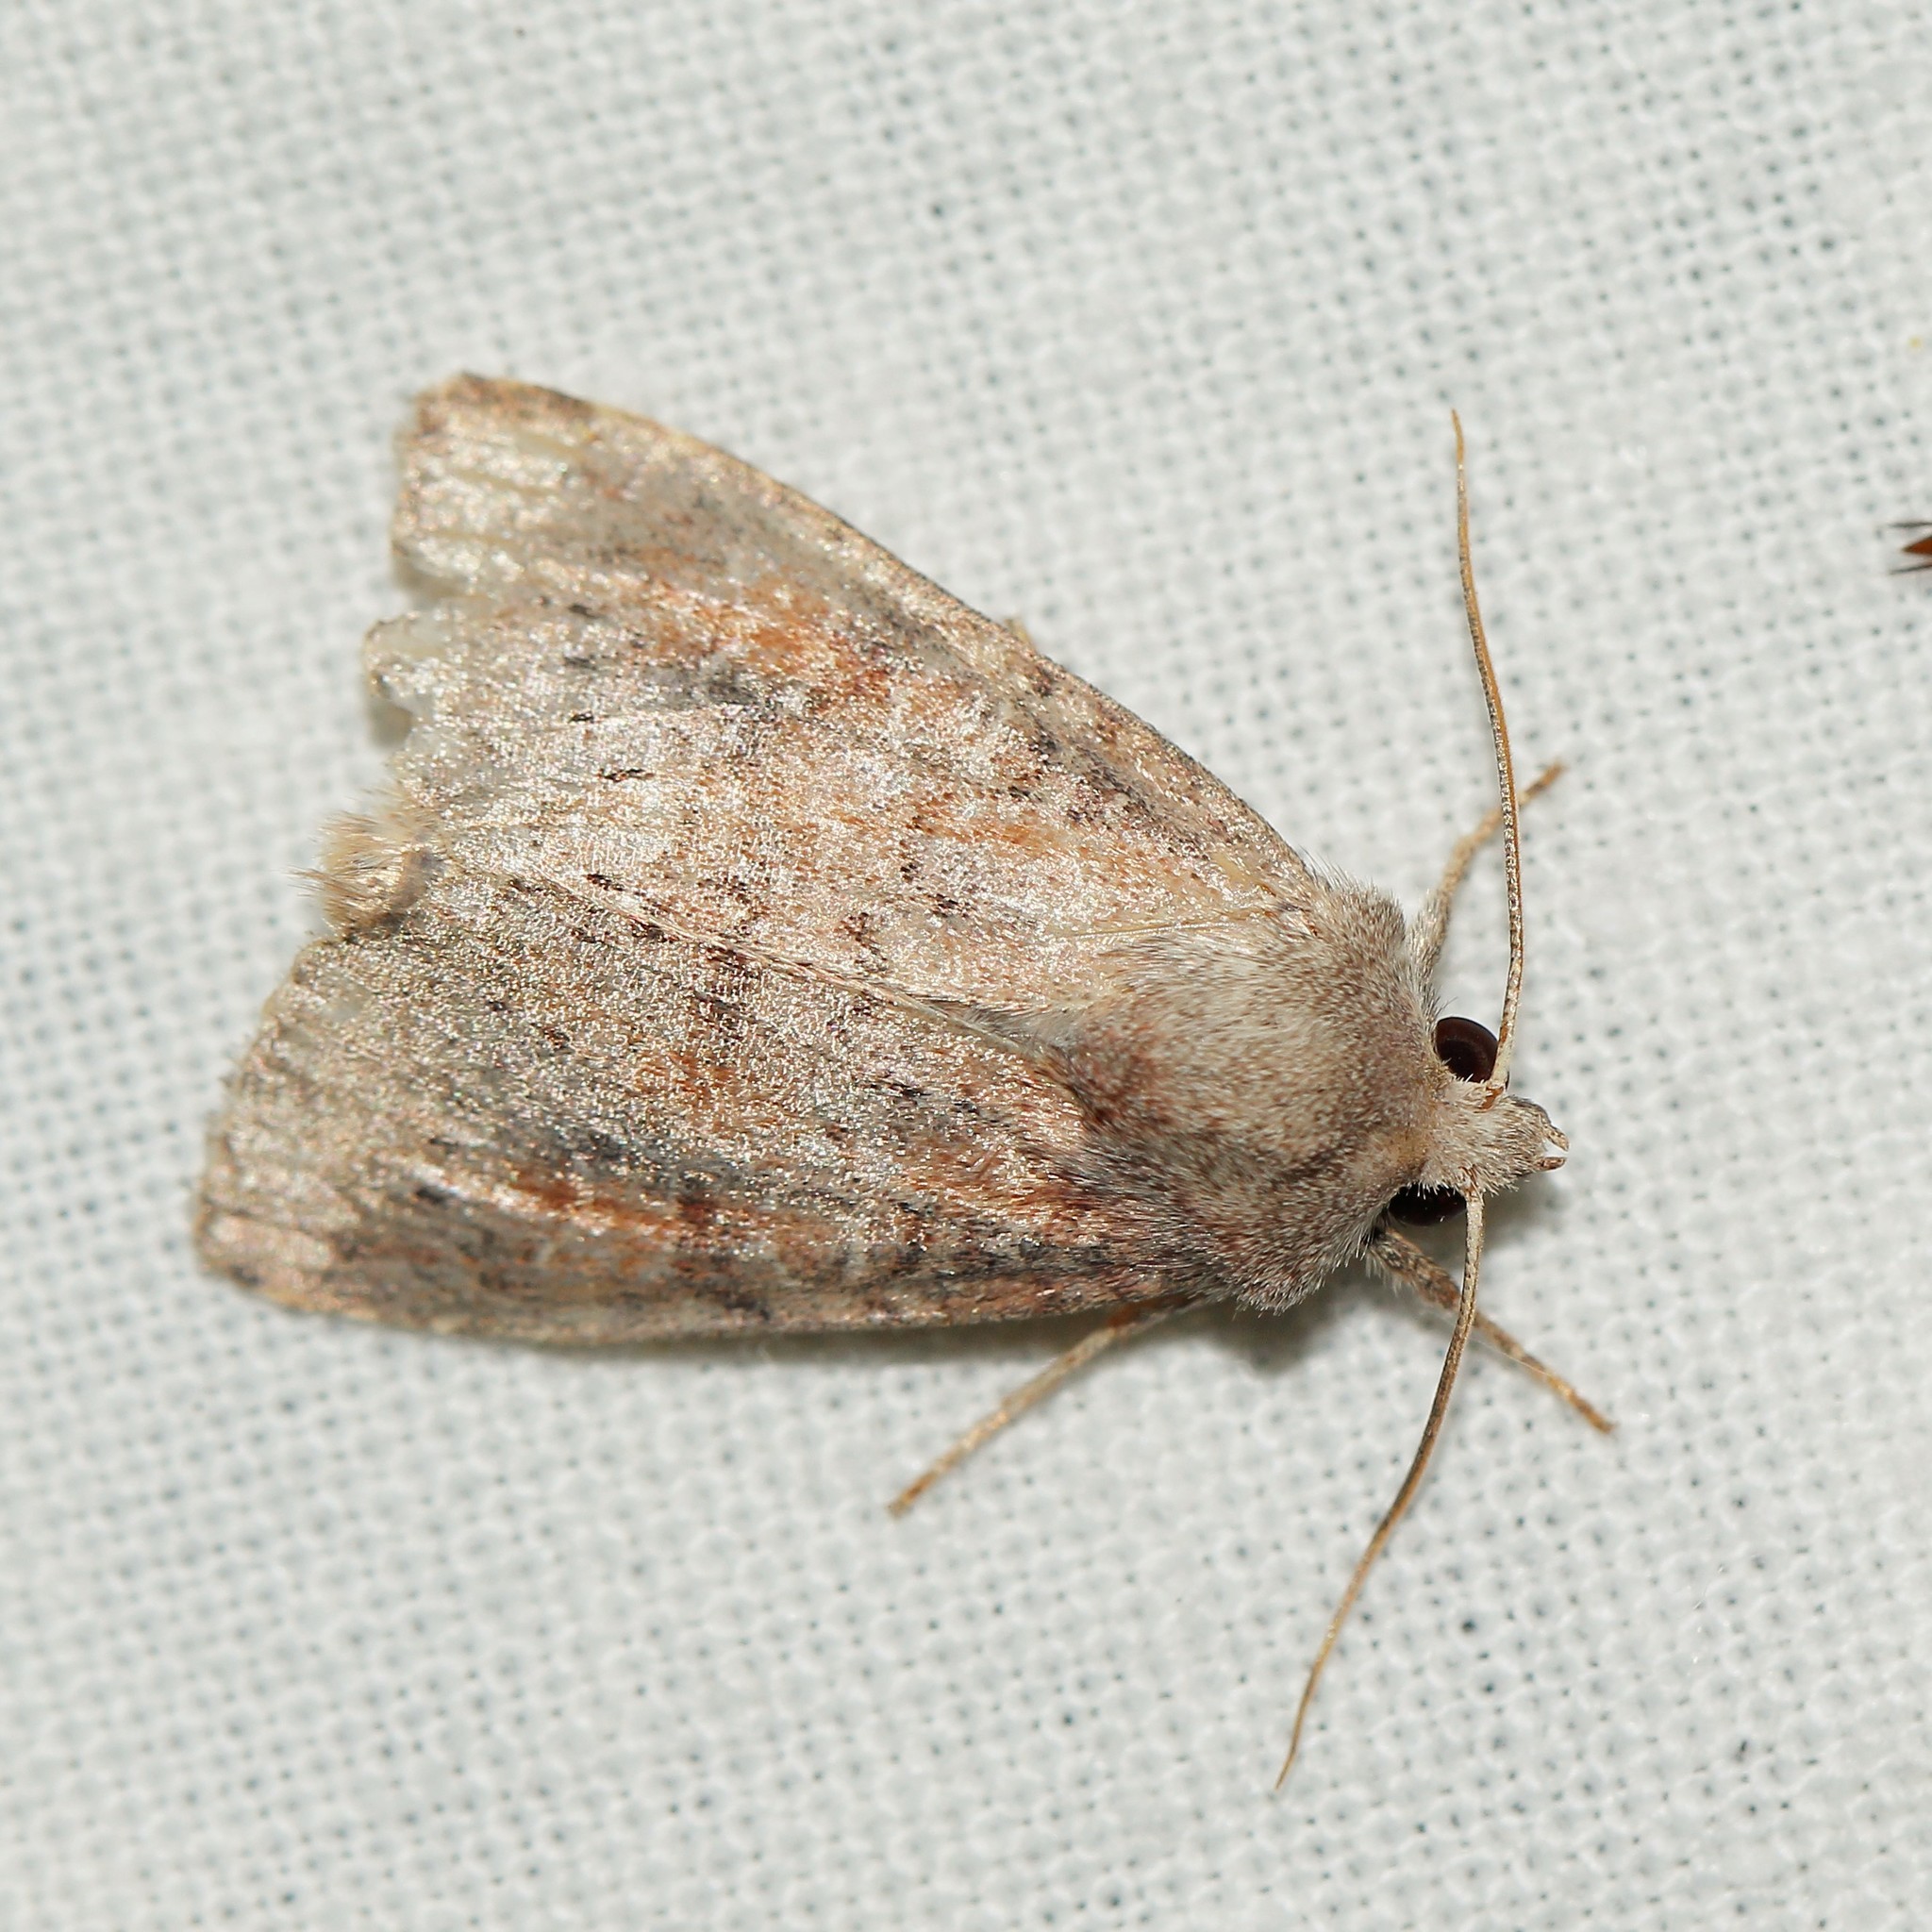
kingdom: Animalia
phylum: Arthropoda
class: Insecta
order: Lepidoptera
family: Noctuidae
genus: Parastichtis
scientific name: Parastichtis suspecta
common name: Suspected
